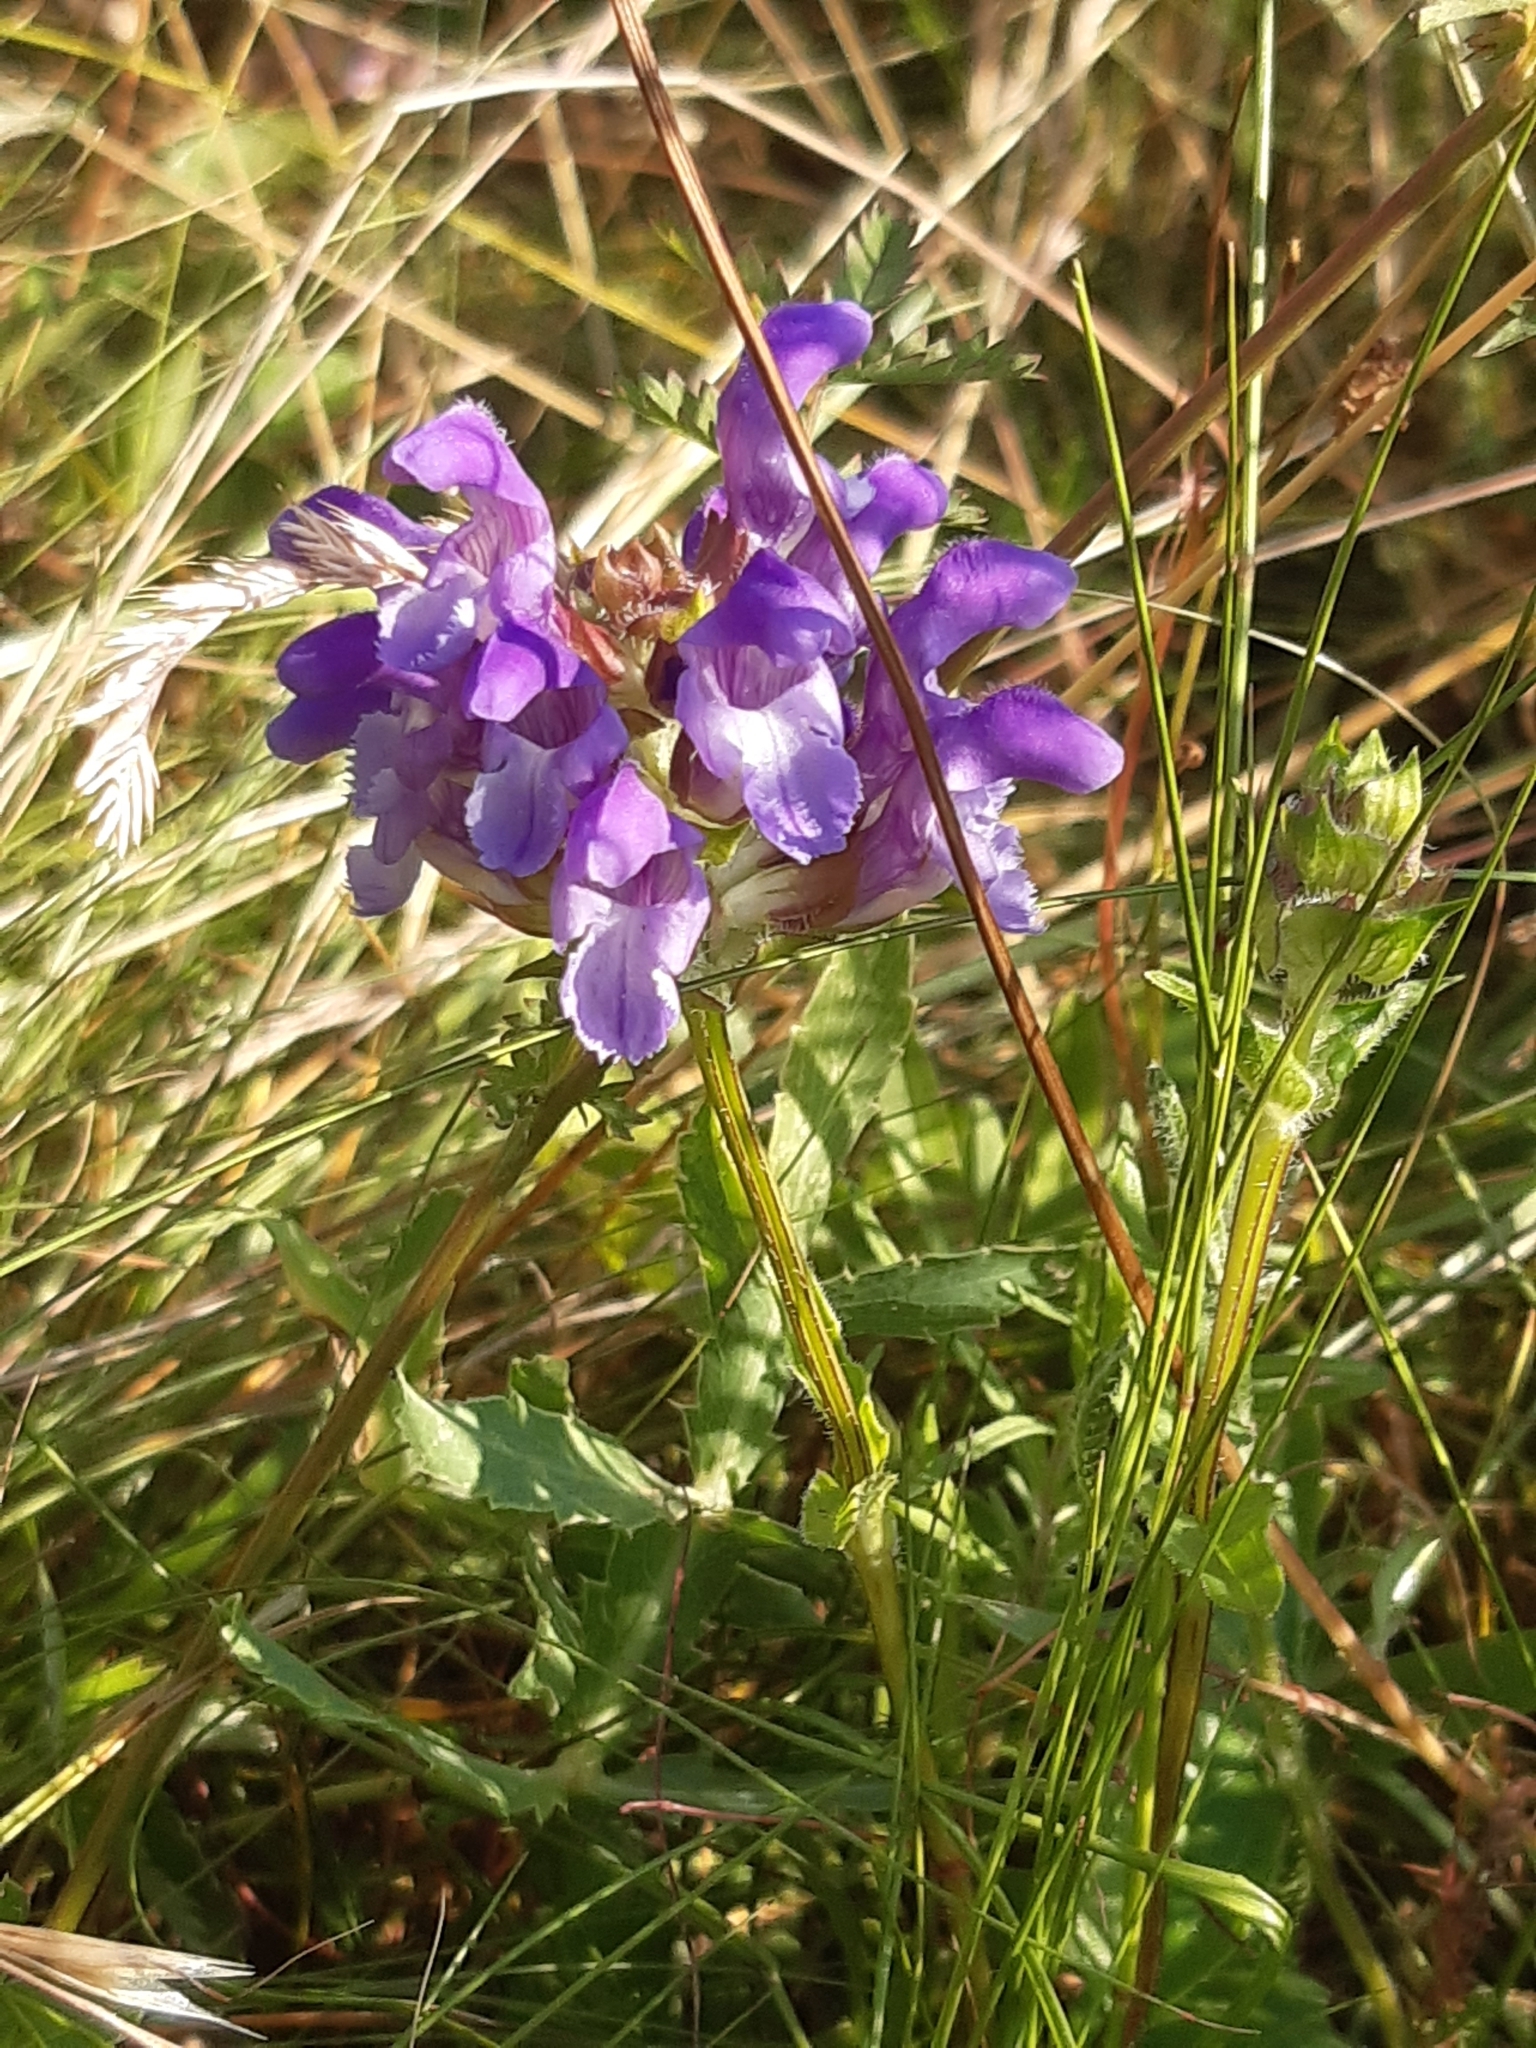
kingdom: Plantae
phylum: Tracheophyta
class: Magnoliopsida
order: Lamiales
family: Lamiaceae
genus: Prunella
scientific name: Prunella grandiflora
